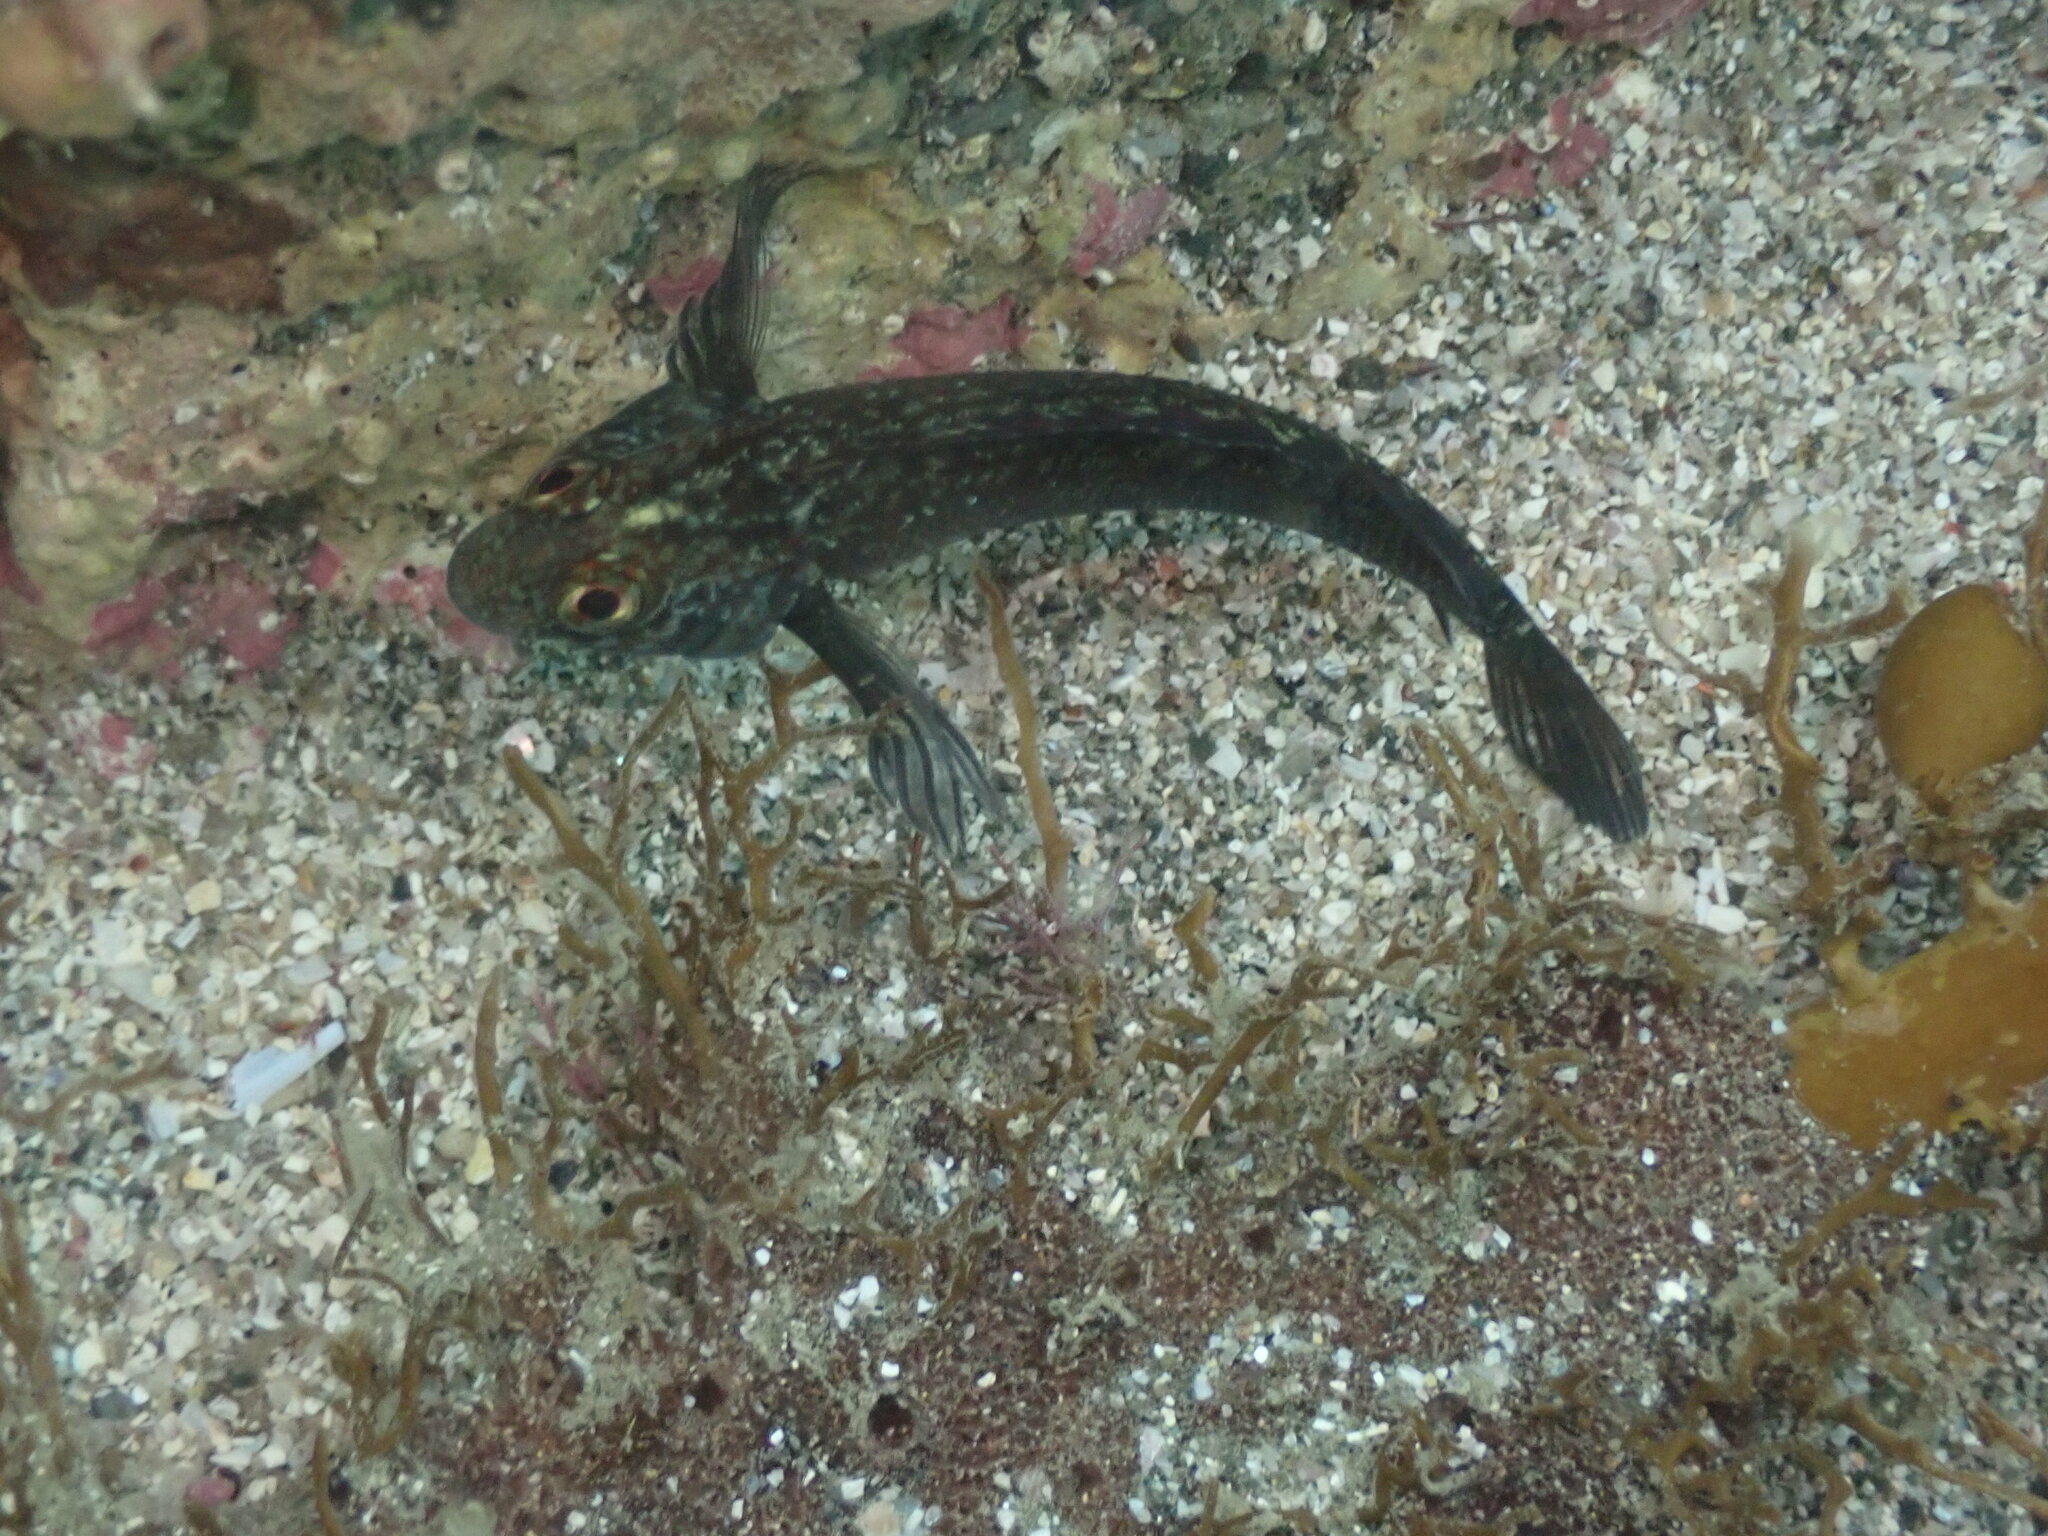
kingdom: Animalia
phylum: Chordata
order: Perciformes
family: Tripterygiidae
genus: Forsterygion
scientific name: Forsterygion lapillum
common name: Common triplefin
